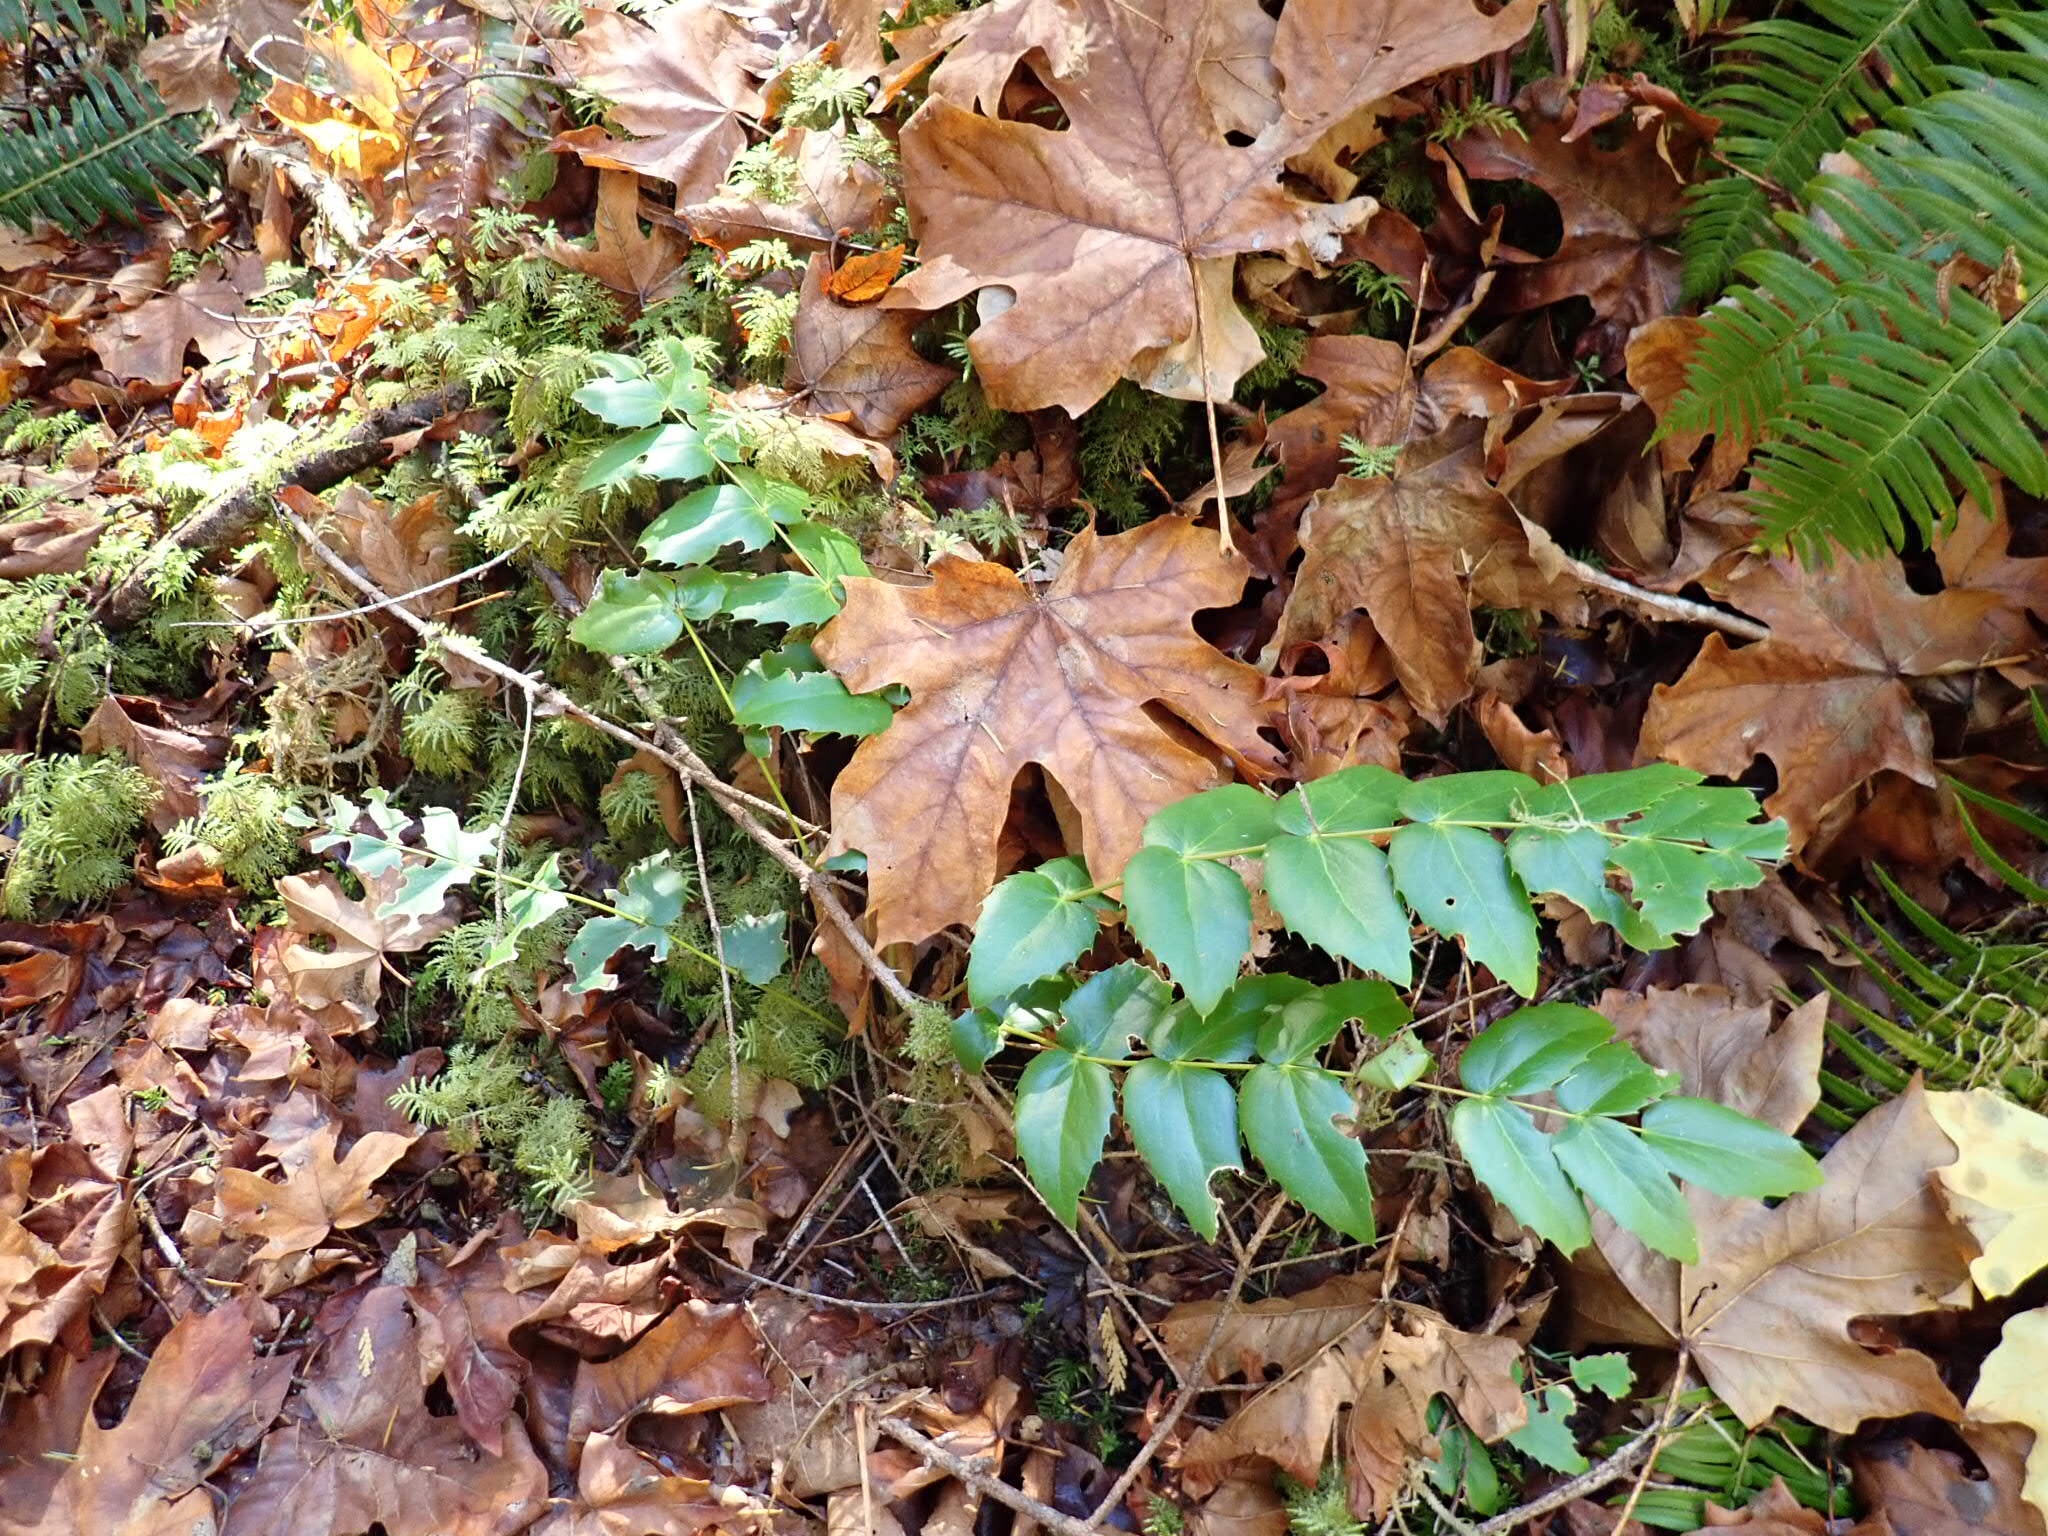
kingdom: Plantae
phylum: Tracheophyta
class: Magnoliopsida
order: Ranunculales
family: Berberidaceae
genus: Mahonia
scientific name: Mahonia nervosa
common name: Cascade oregon-grape
